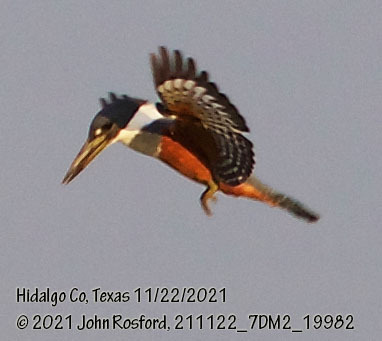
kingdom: Animalia
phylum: Chordata
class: Aves
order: Coraciiformes
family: Alcedinidae
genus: Megaceryle
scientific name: Megaceryle torquata
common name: Ringed kingfisher
